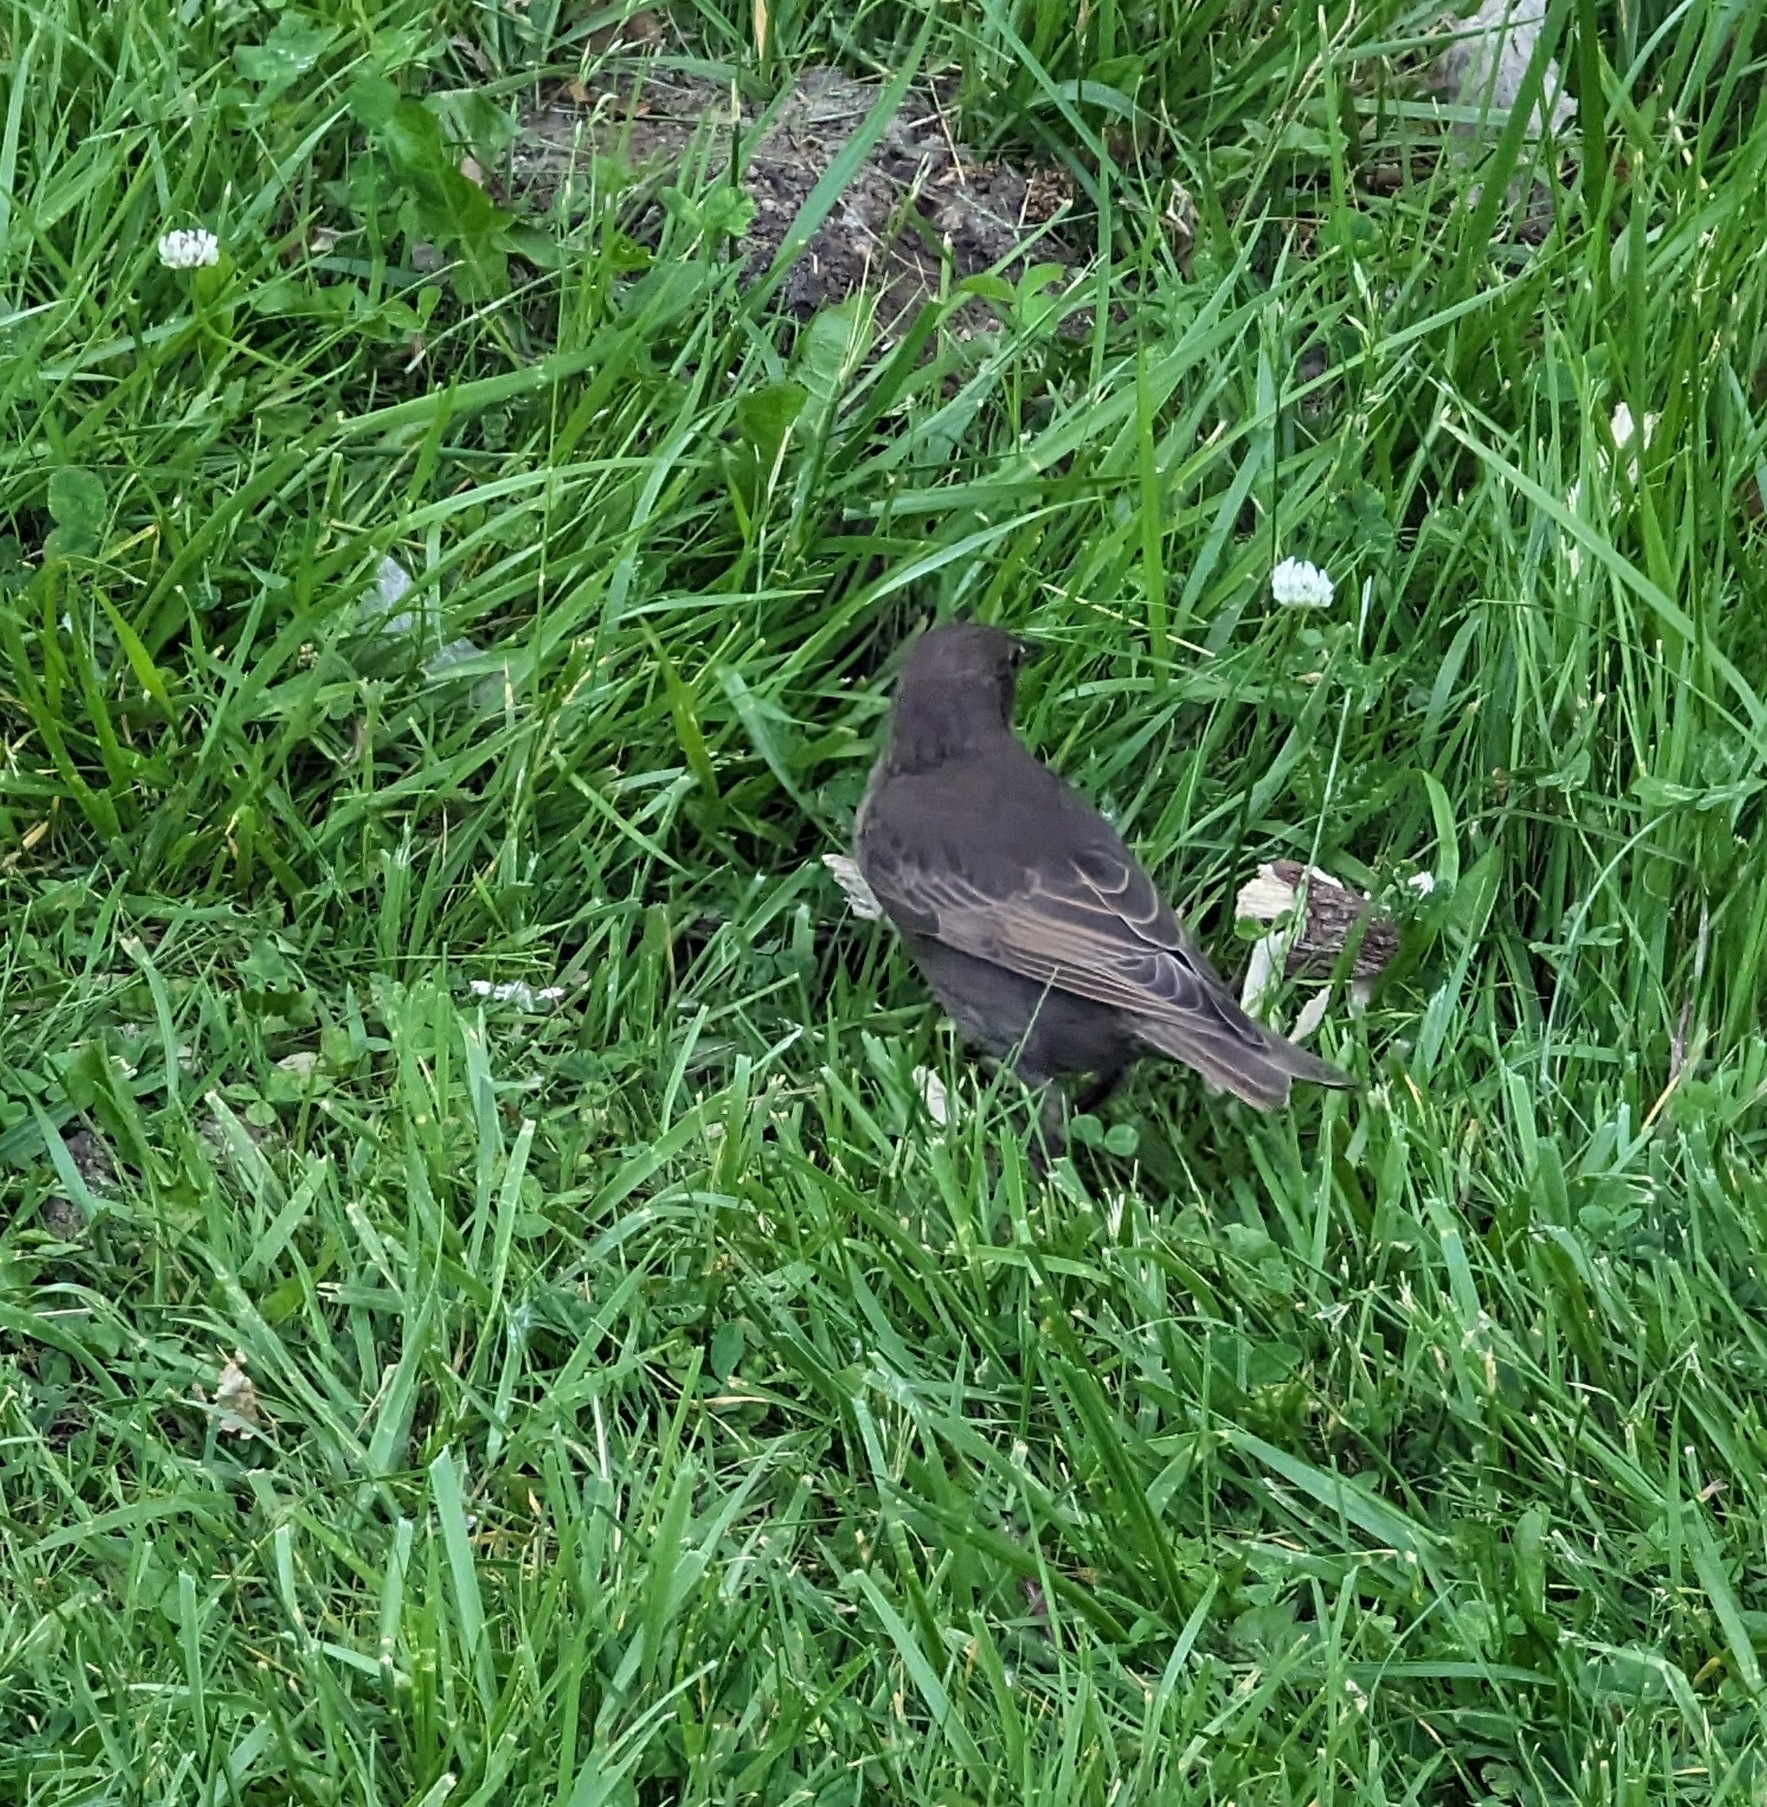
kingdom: Animalia
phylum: Chordata
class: Aves
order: Passeriformes
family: Sturnidae
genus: Sturnus
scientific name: Sturnus vulgaris
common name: Common starling
